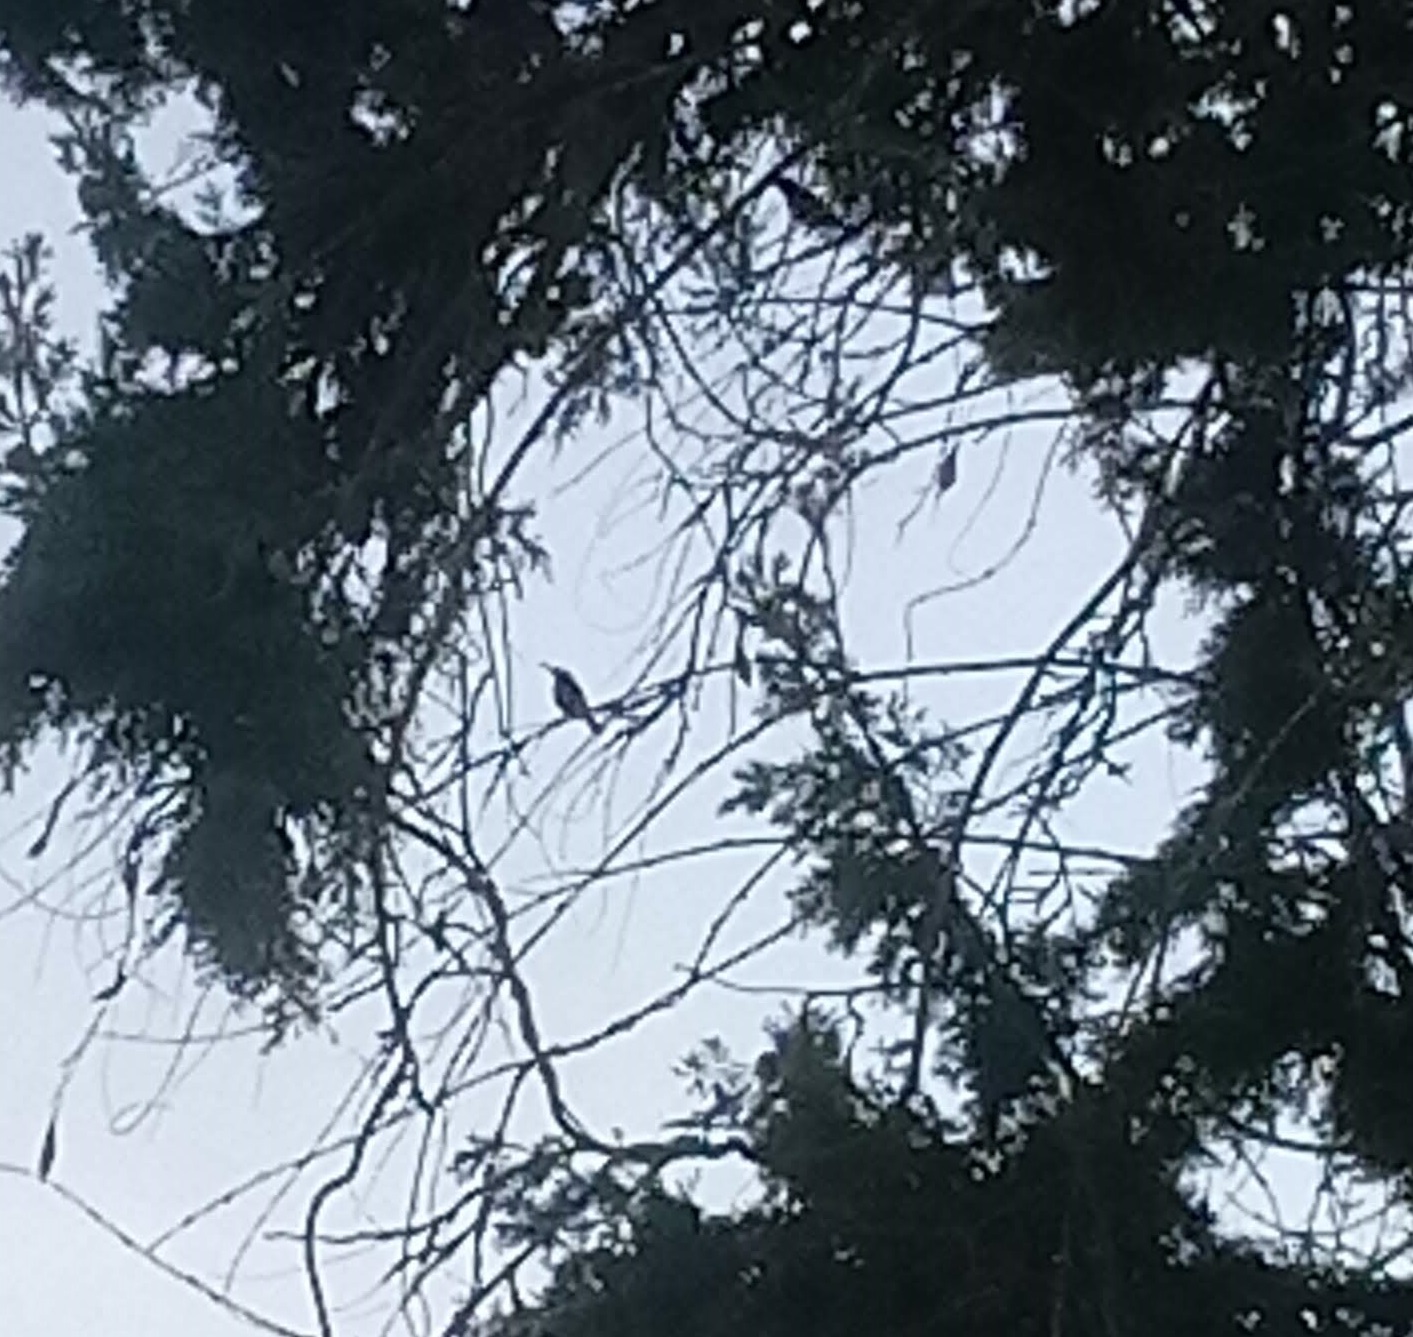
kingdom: Animalia
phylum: Chordata
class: Aves
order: Passeriformes
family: Nectariniidae
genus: Cinnyris
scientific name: Cinnyris osea
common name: Palestine sunbird
